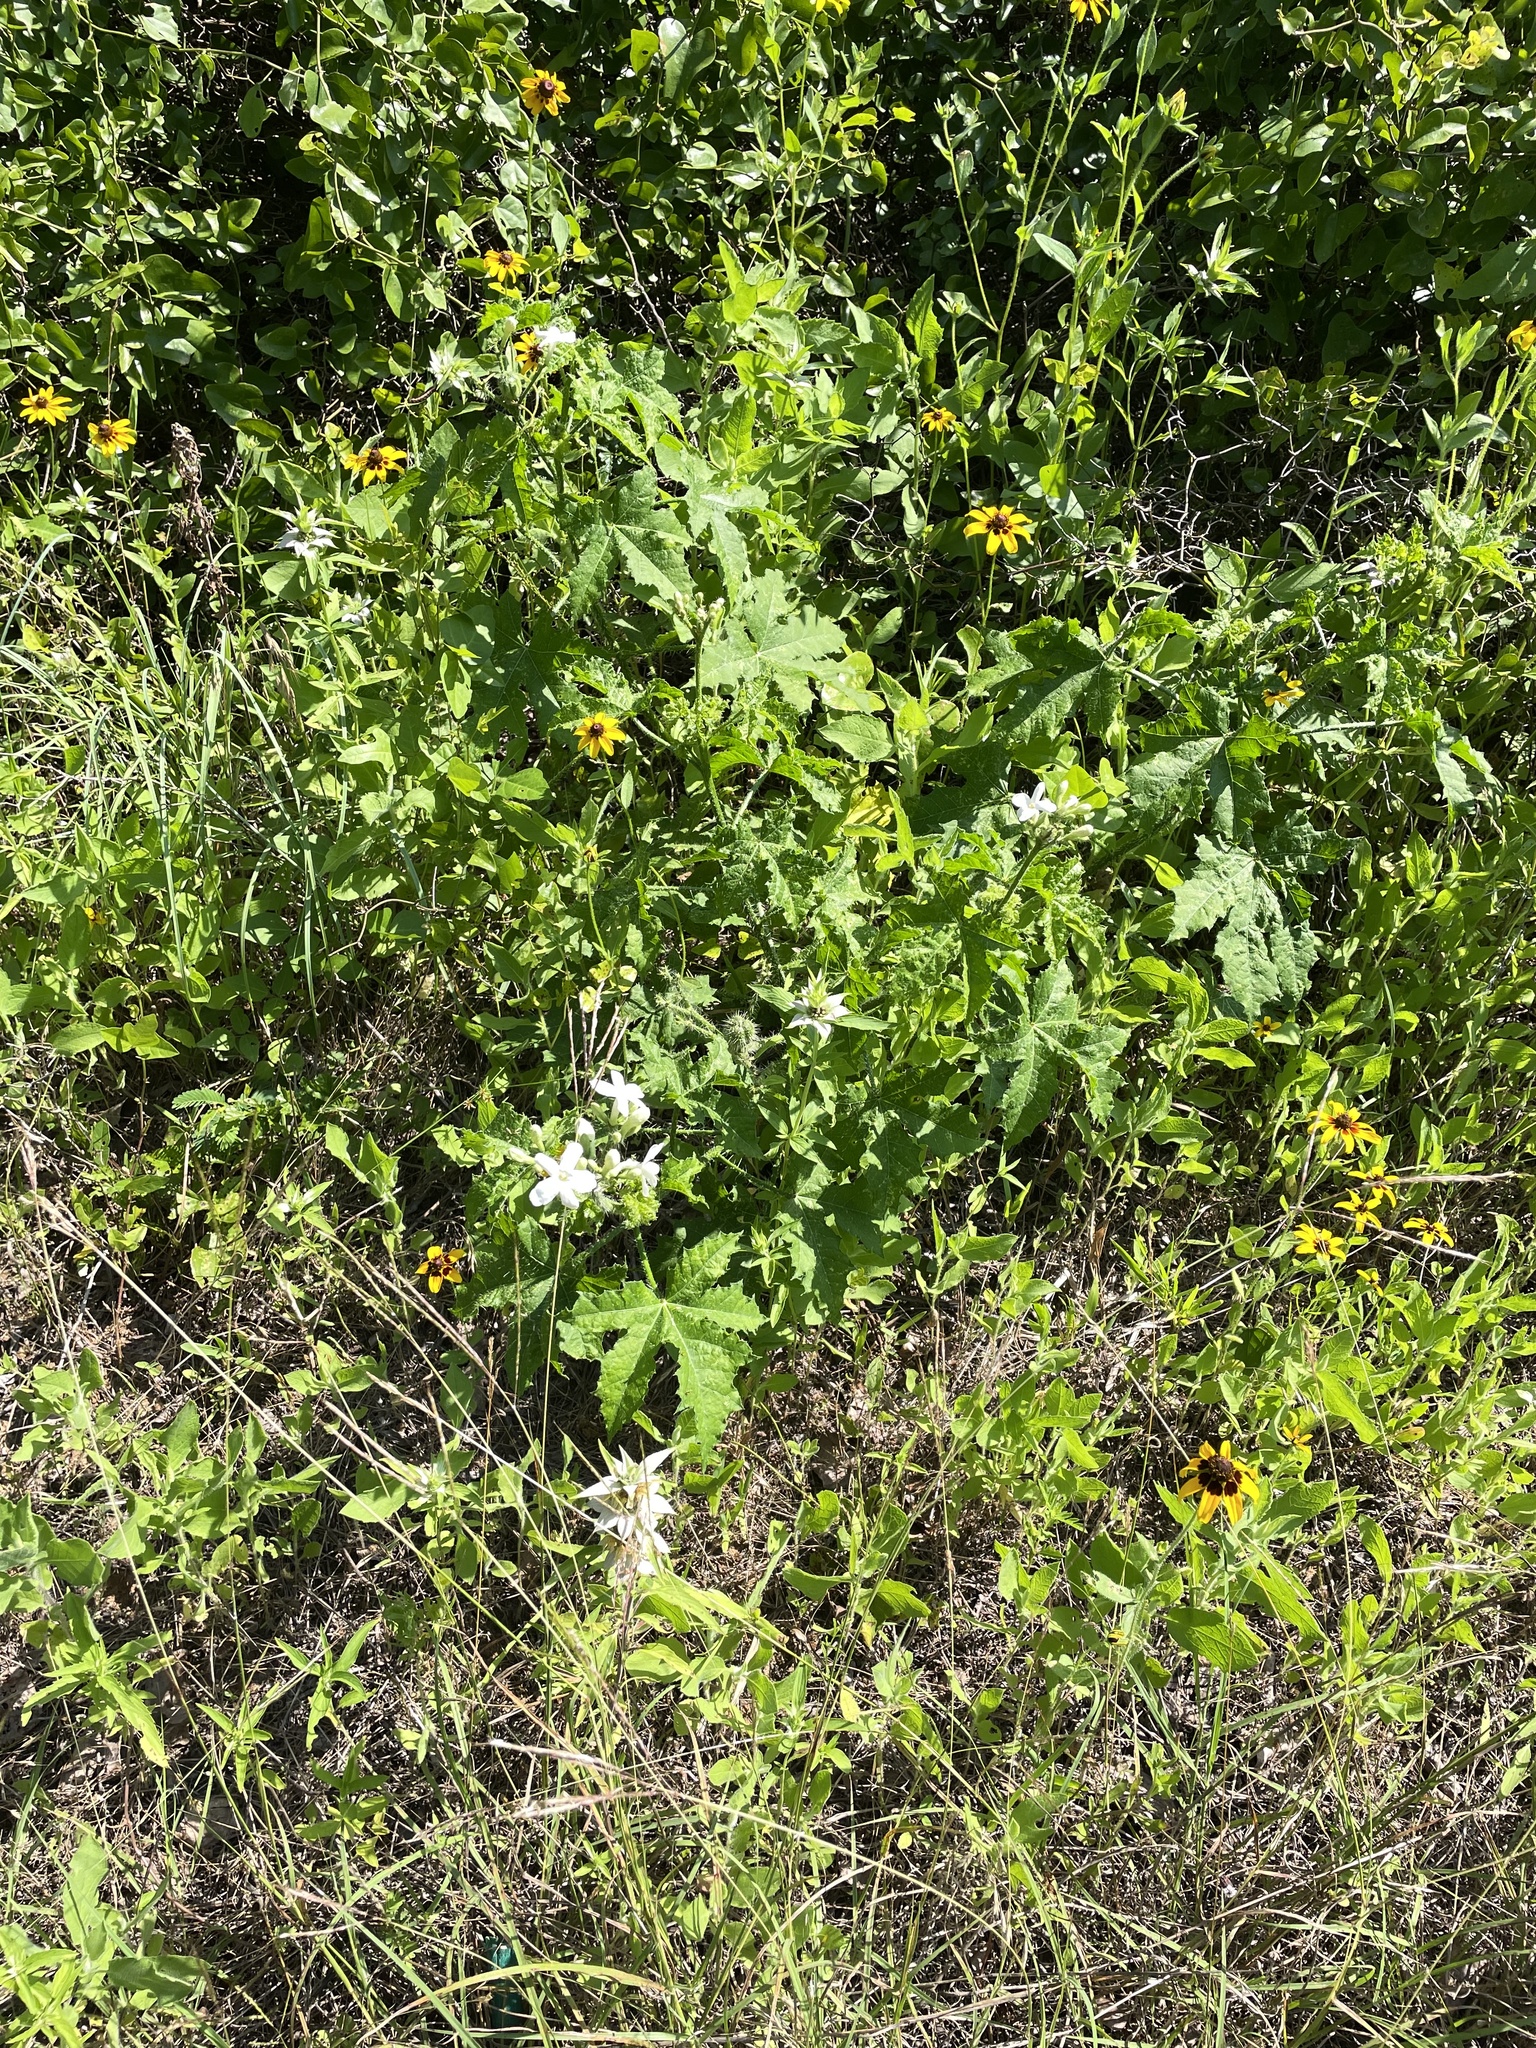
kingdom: Plantae
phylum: Tracheophyta
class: Magnoliopsida
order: Malpighiales
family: Euphorbiaceae
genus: Cnidoscolus
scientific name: Cnidoscolus texanus
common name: Texas bull-nettle
